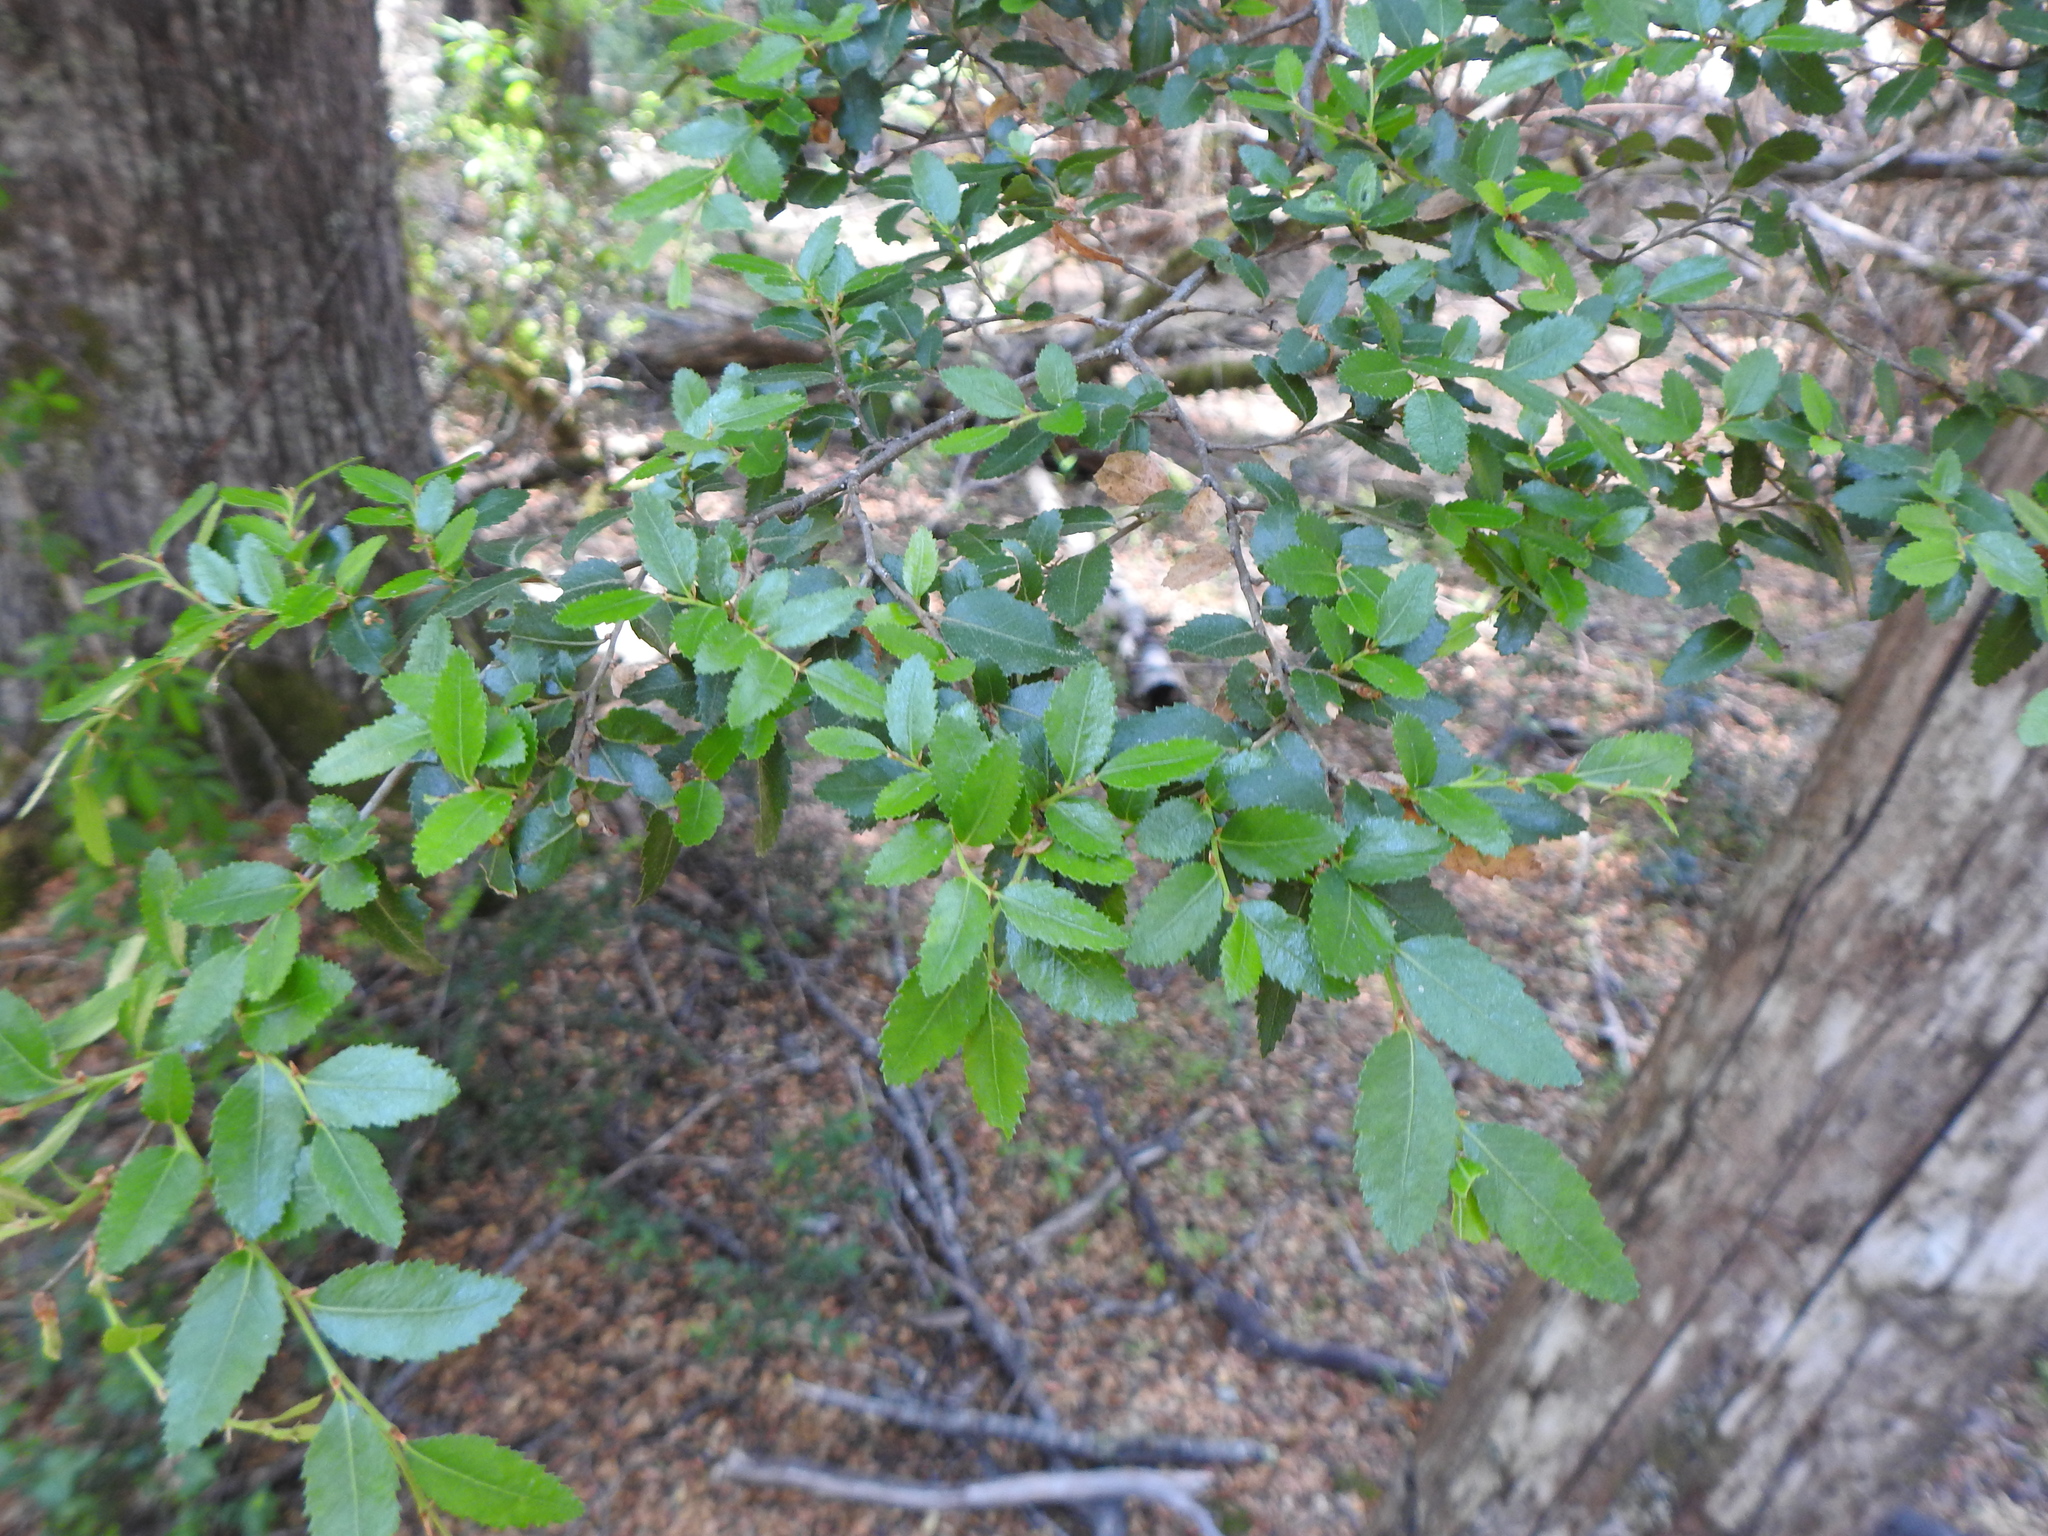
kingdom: Plantae
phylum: Tracheophyta
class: Magnoliopsida
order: Fagales
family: Nothofagaceae
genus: Nothofagus
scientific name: Nothofagus dombeyi
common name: Coigue
